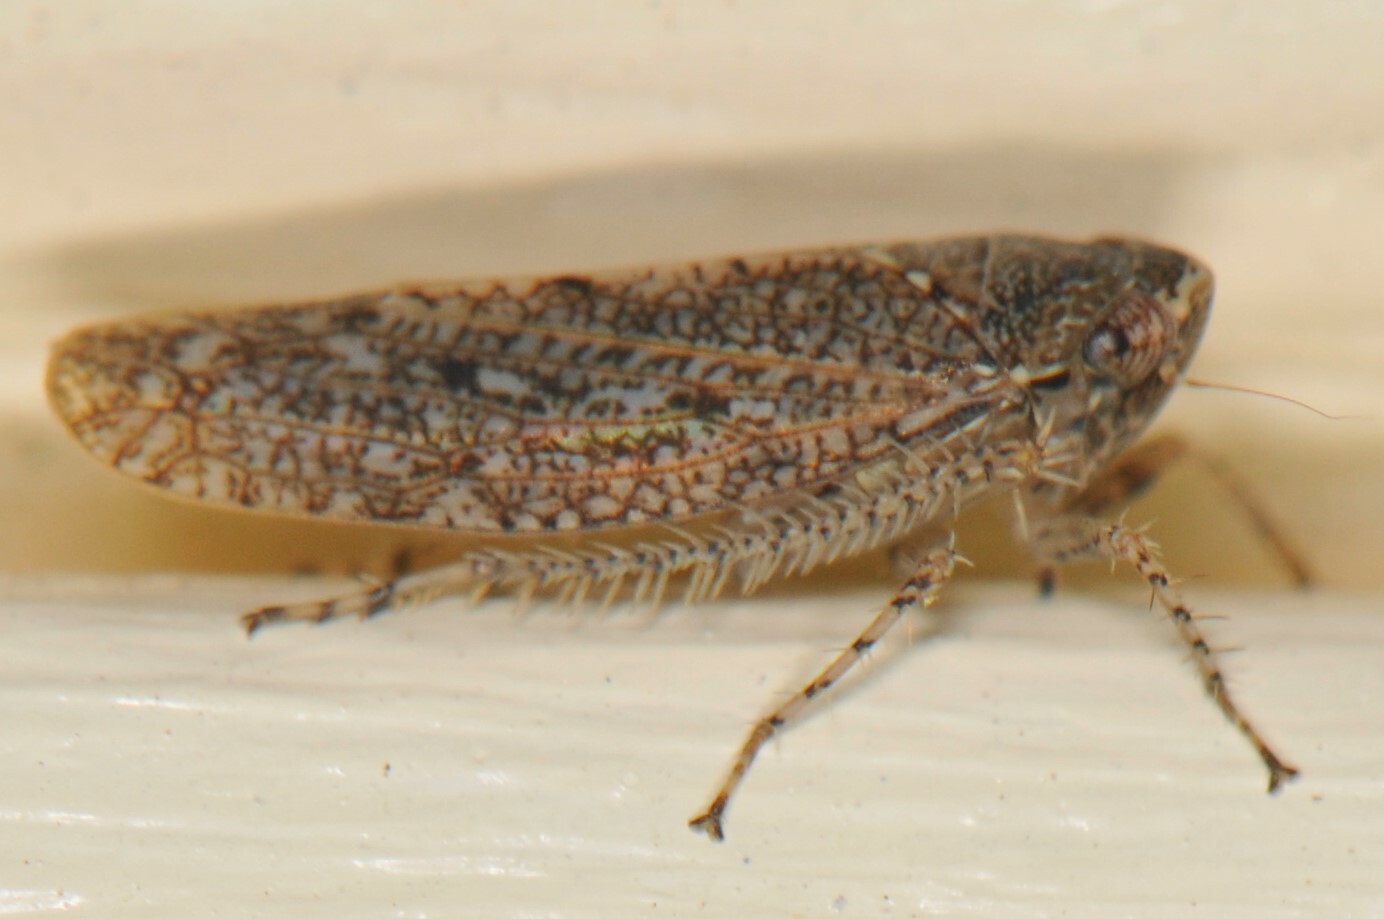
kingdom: Animalia
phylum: Arthropoda
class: Insecta
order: Hemiptera
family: Cicadellidae
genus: Texananus
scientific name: Texananus
